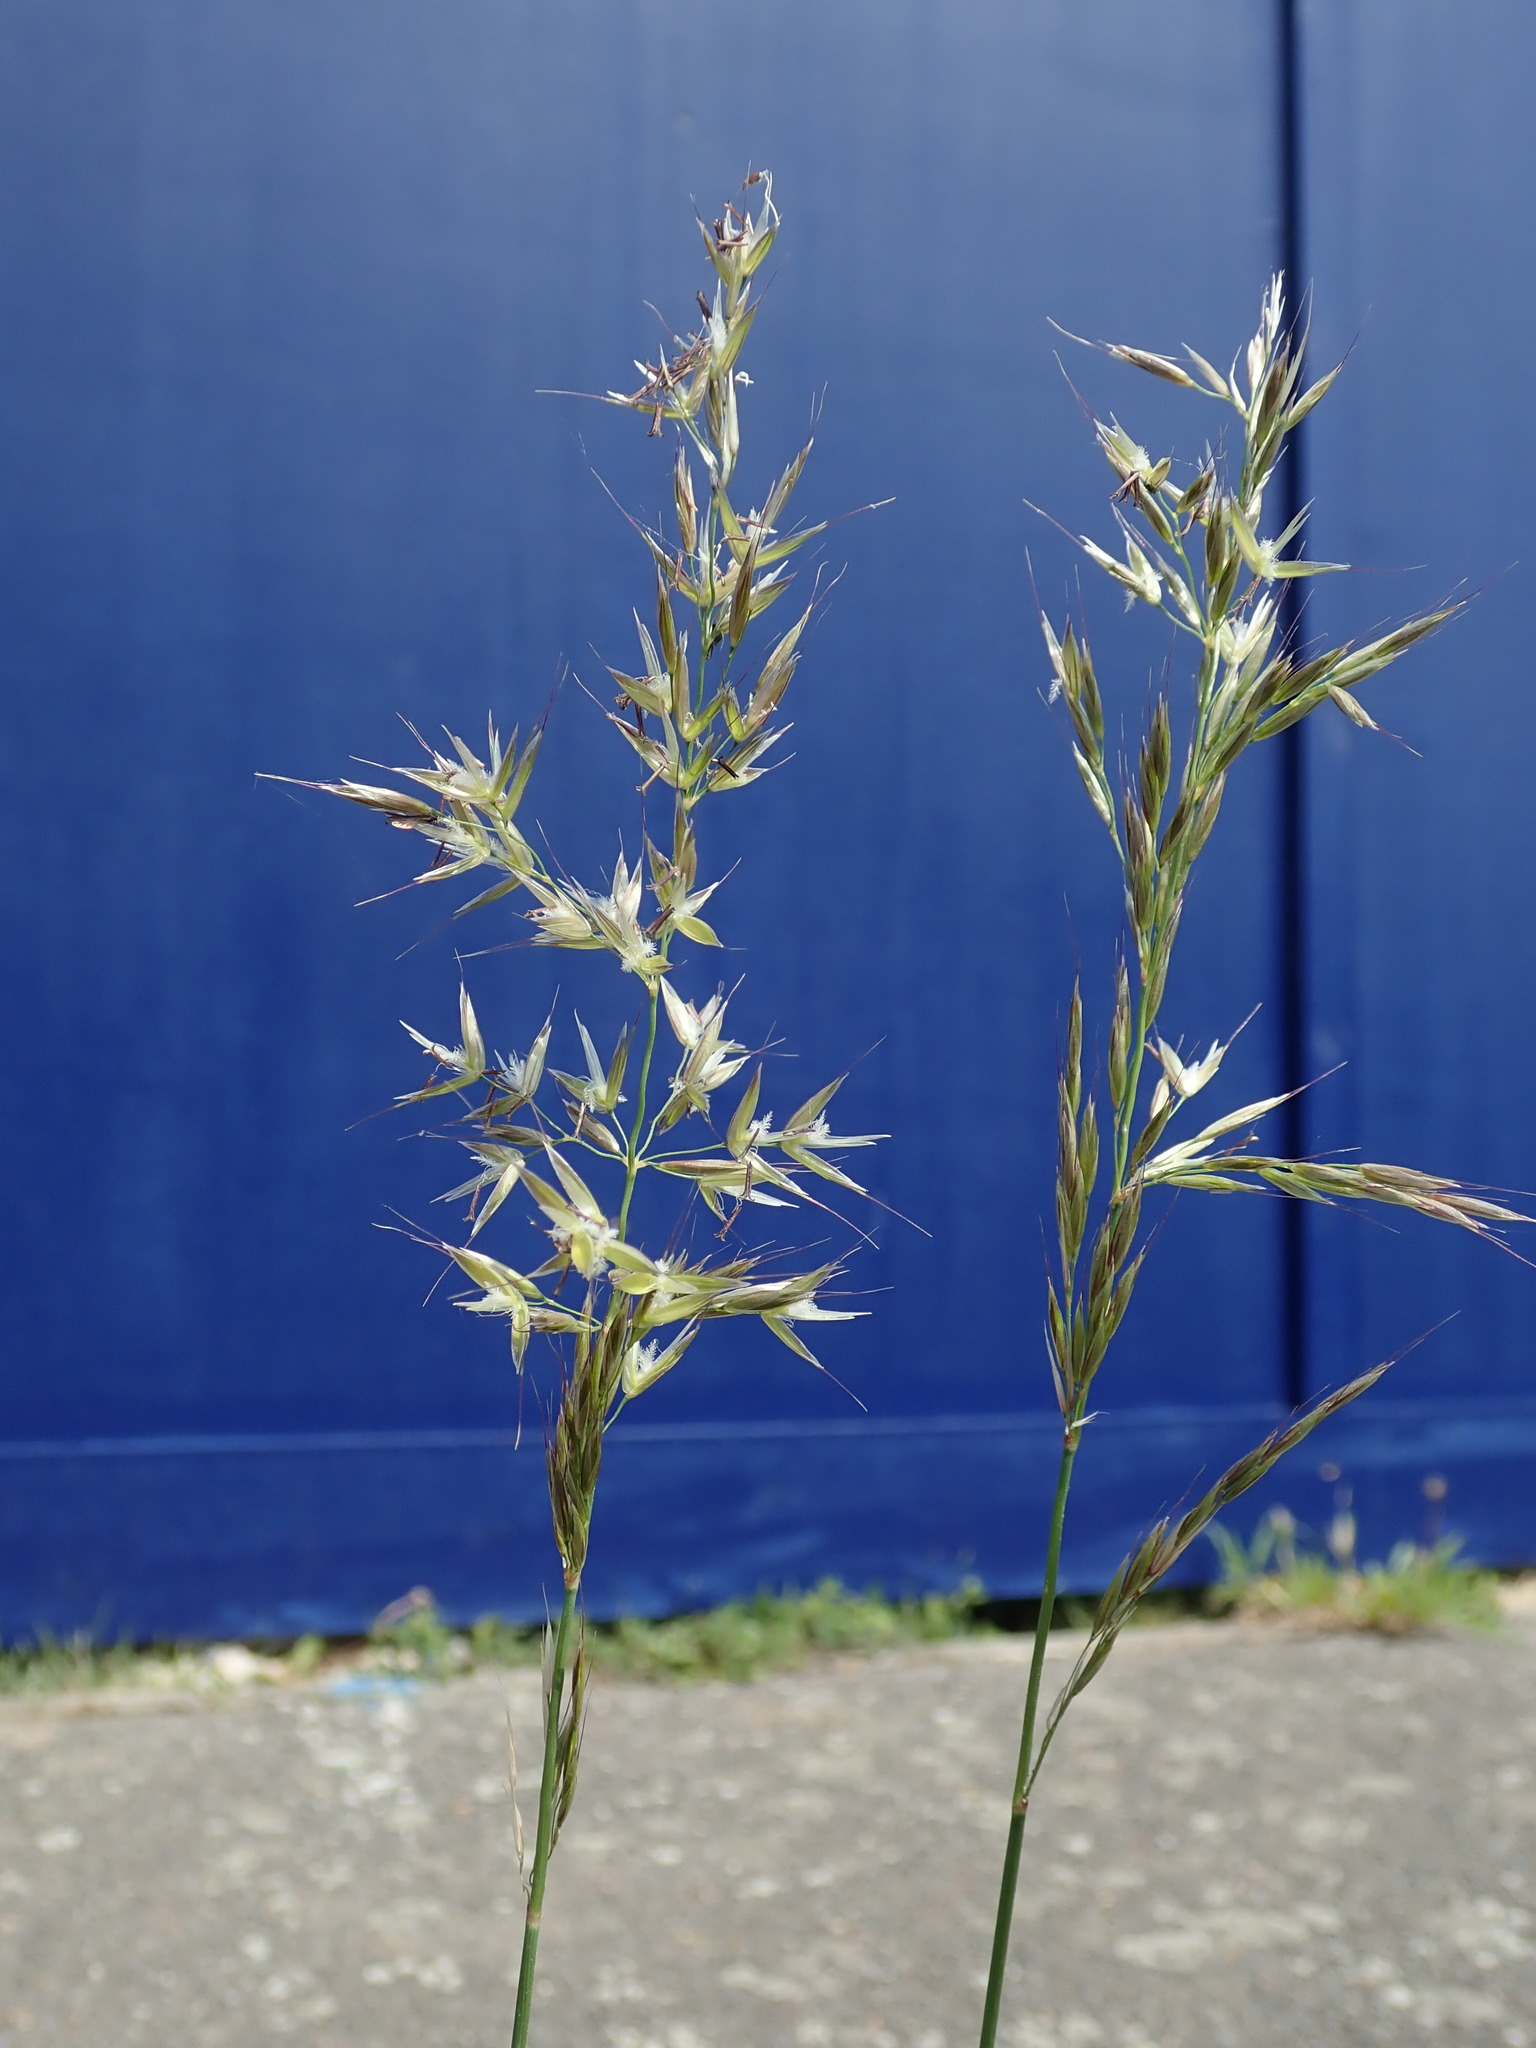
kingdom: Plantae
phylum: Tracheophyta
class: Liliopsida
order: Poales
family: Poaceae
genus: Arrhenatherum
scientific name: Arrhenatherum elatius
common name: Tall oatgrass
